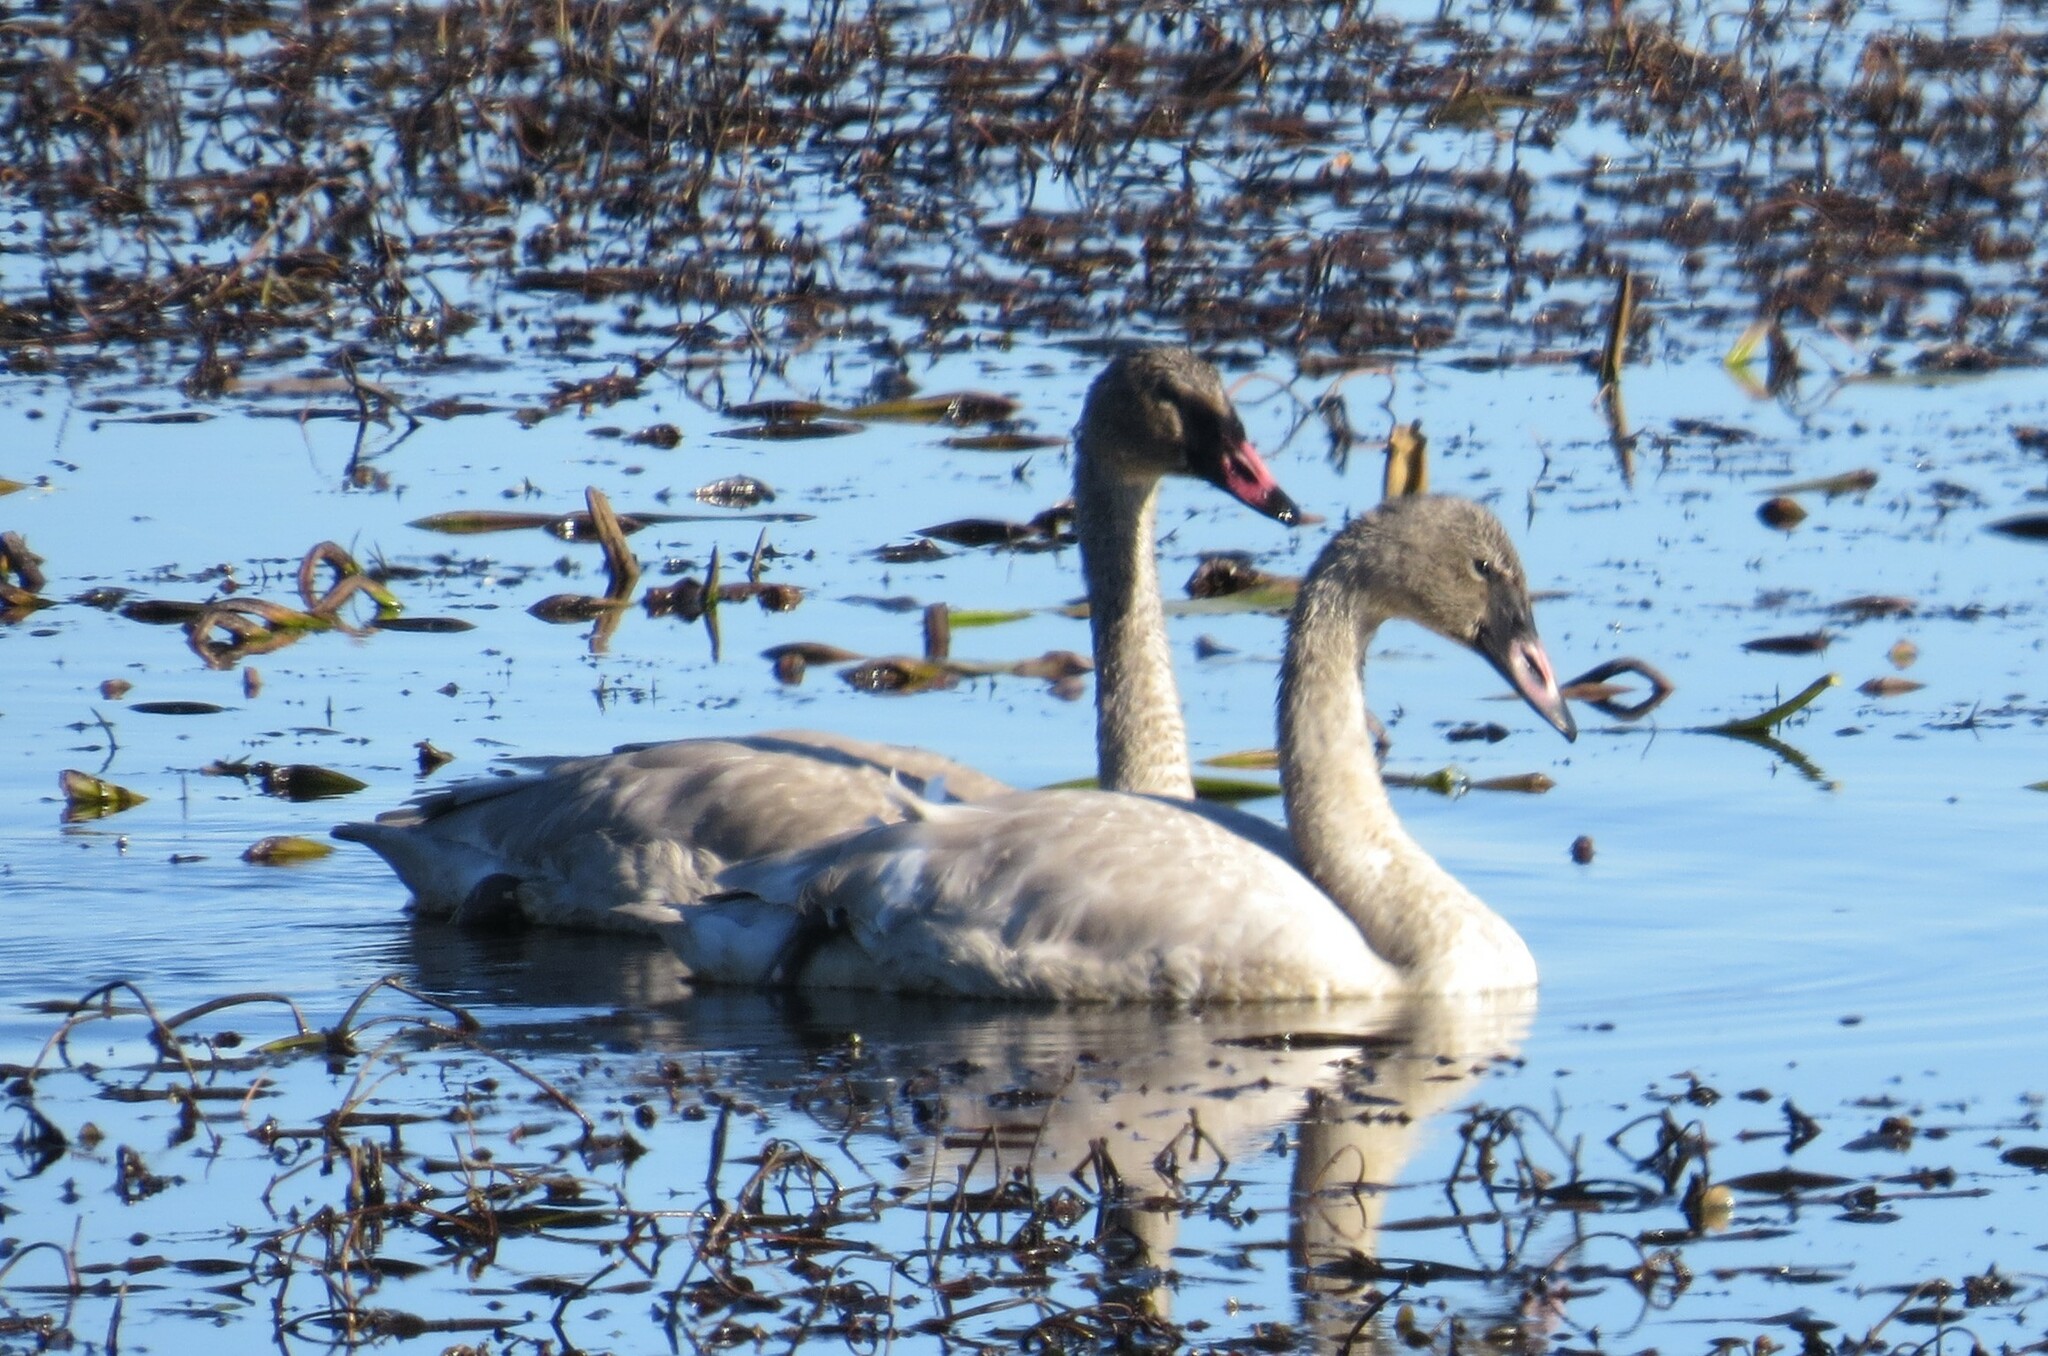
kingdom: Animalia
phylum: Chordata
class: Aves
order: Anseriformes
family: Anatidae
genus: Cygnus
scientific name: Cygnus buccinator
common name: Trumpeter swan
